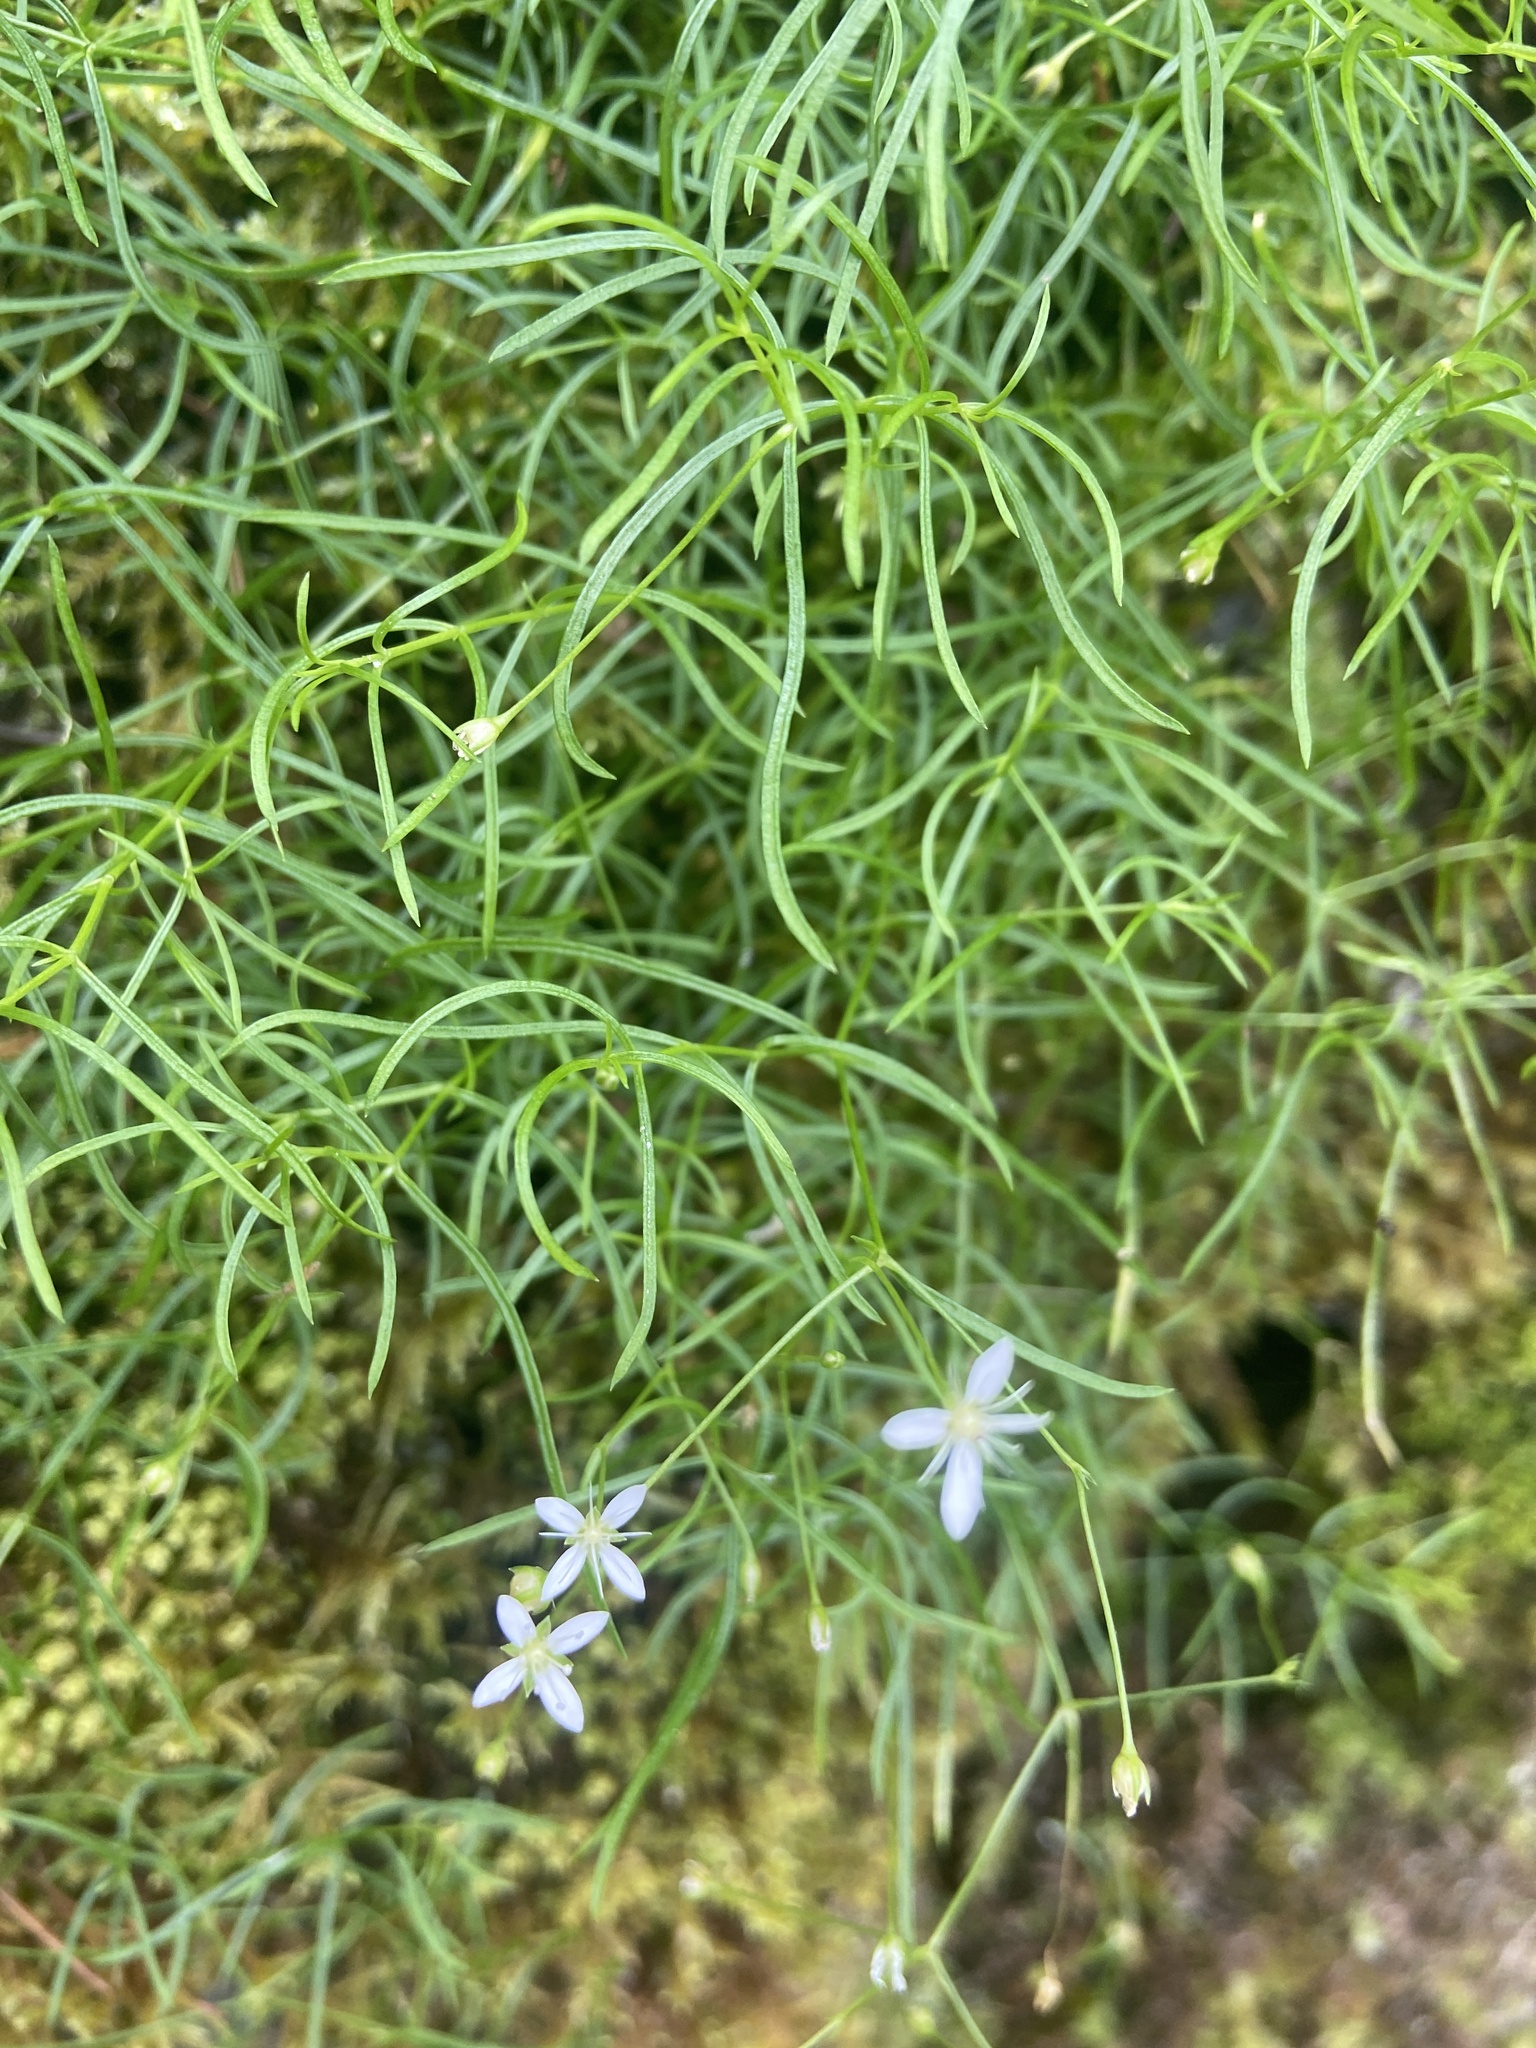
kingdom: Plantae
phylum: Tracheophyta
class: Magnoliopsida
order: Caryophyllales
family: Caryophyllaceae
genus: Moehringia
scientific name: Moehringia muscosa
